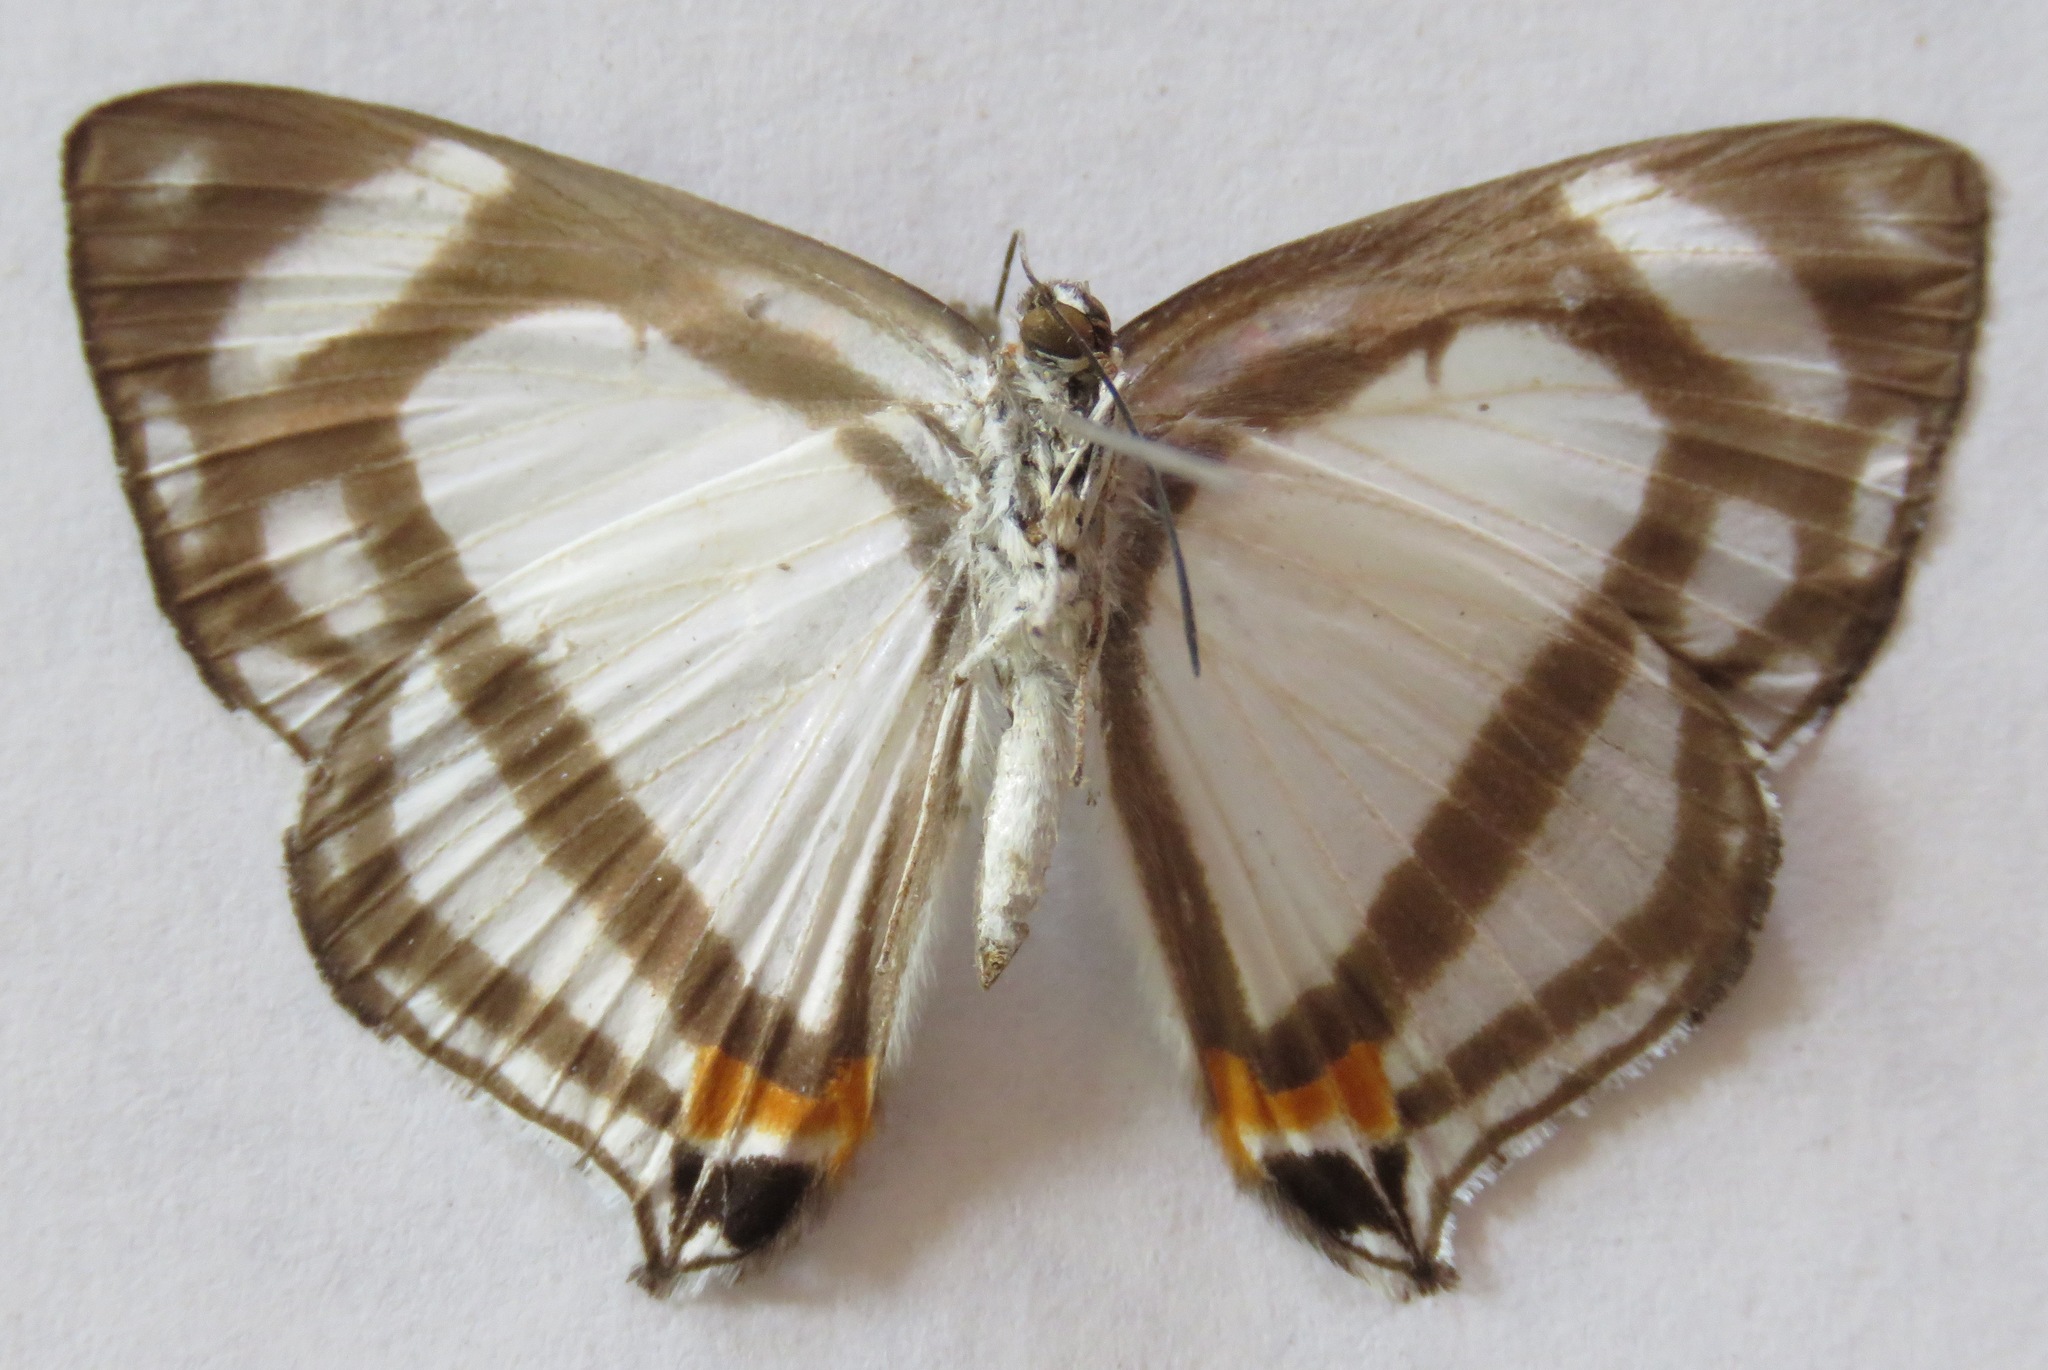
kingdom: Animalia
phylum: Arthropoda
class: Insecta
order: Lepidoptera
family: Riodinidae
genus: Thisbe
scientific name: Thisbe lycorias
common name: Banner metalmark
